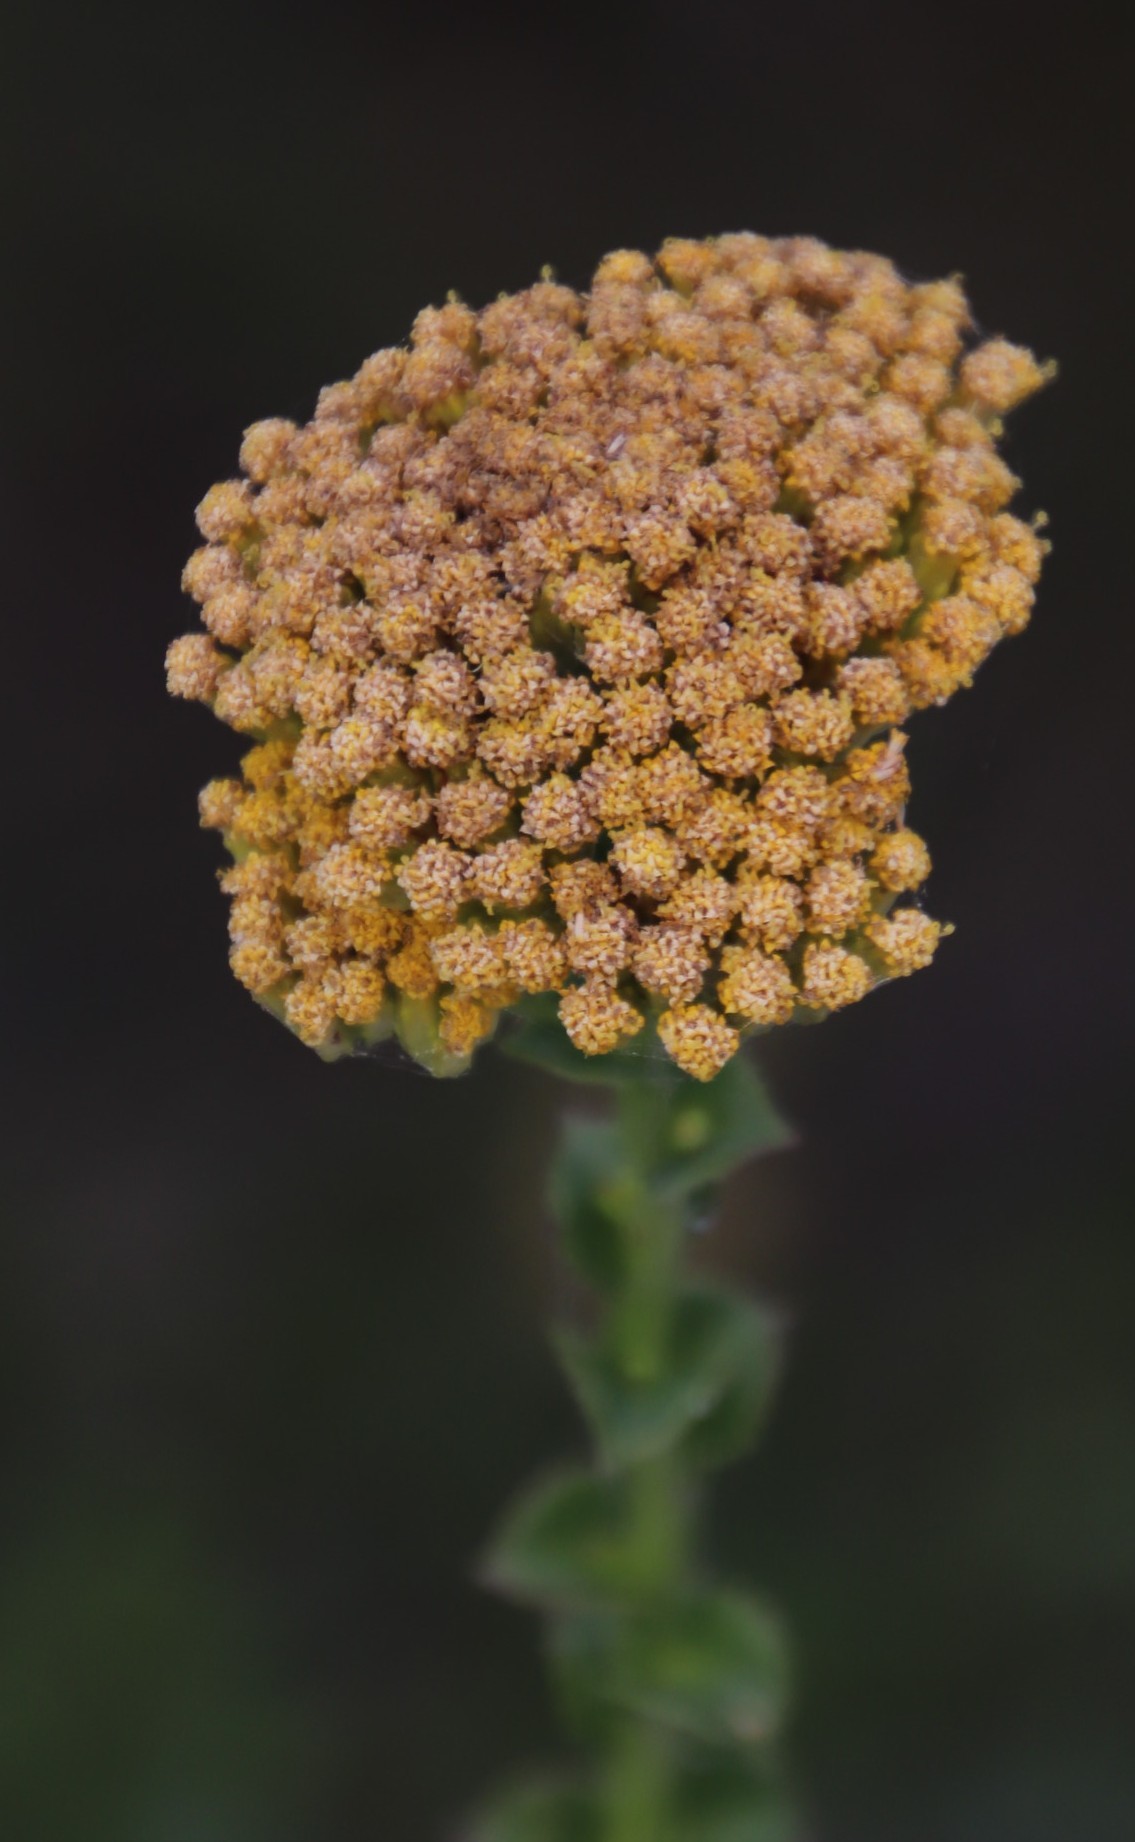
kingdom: Plantae
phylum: Tracheophyta
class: Magnoliopsida
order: Asterales
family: Asteraceae
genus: Athanasia
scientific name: Athanasia dentata
